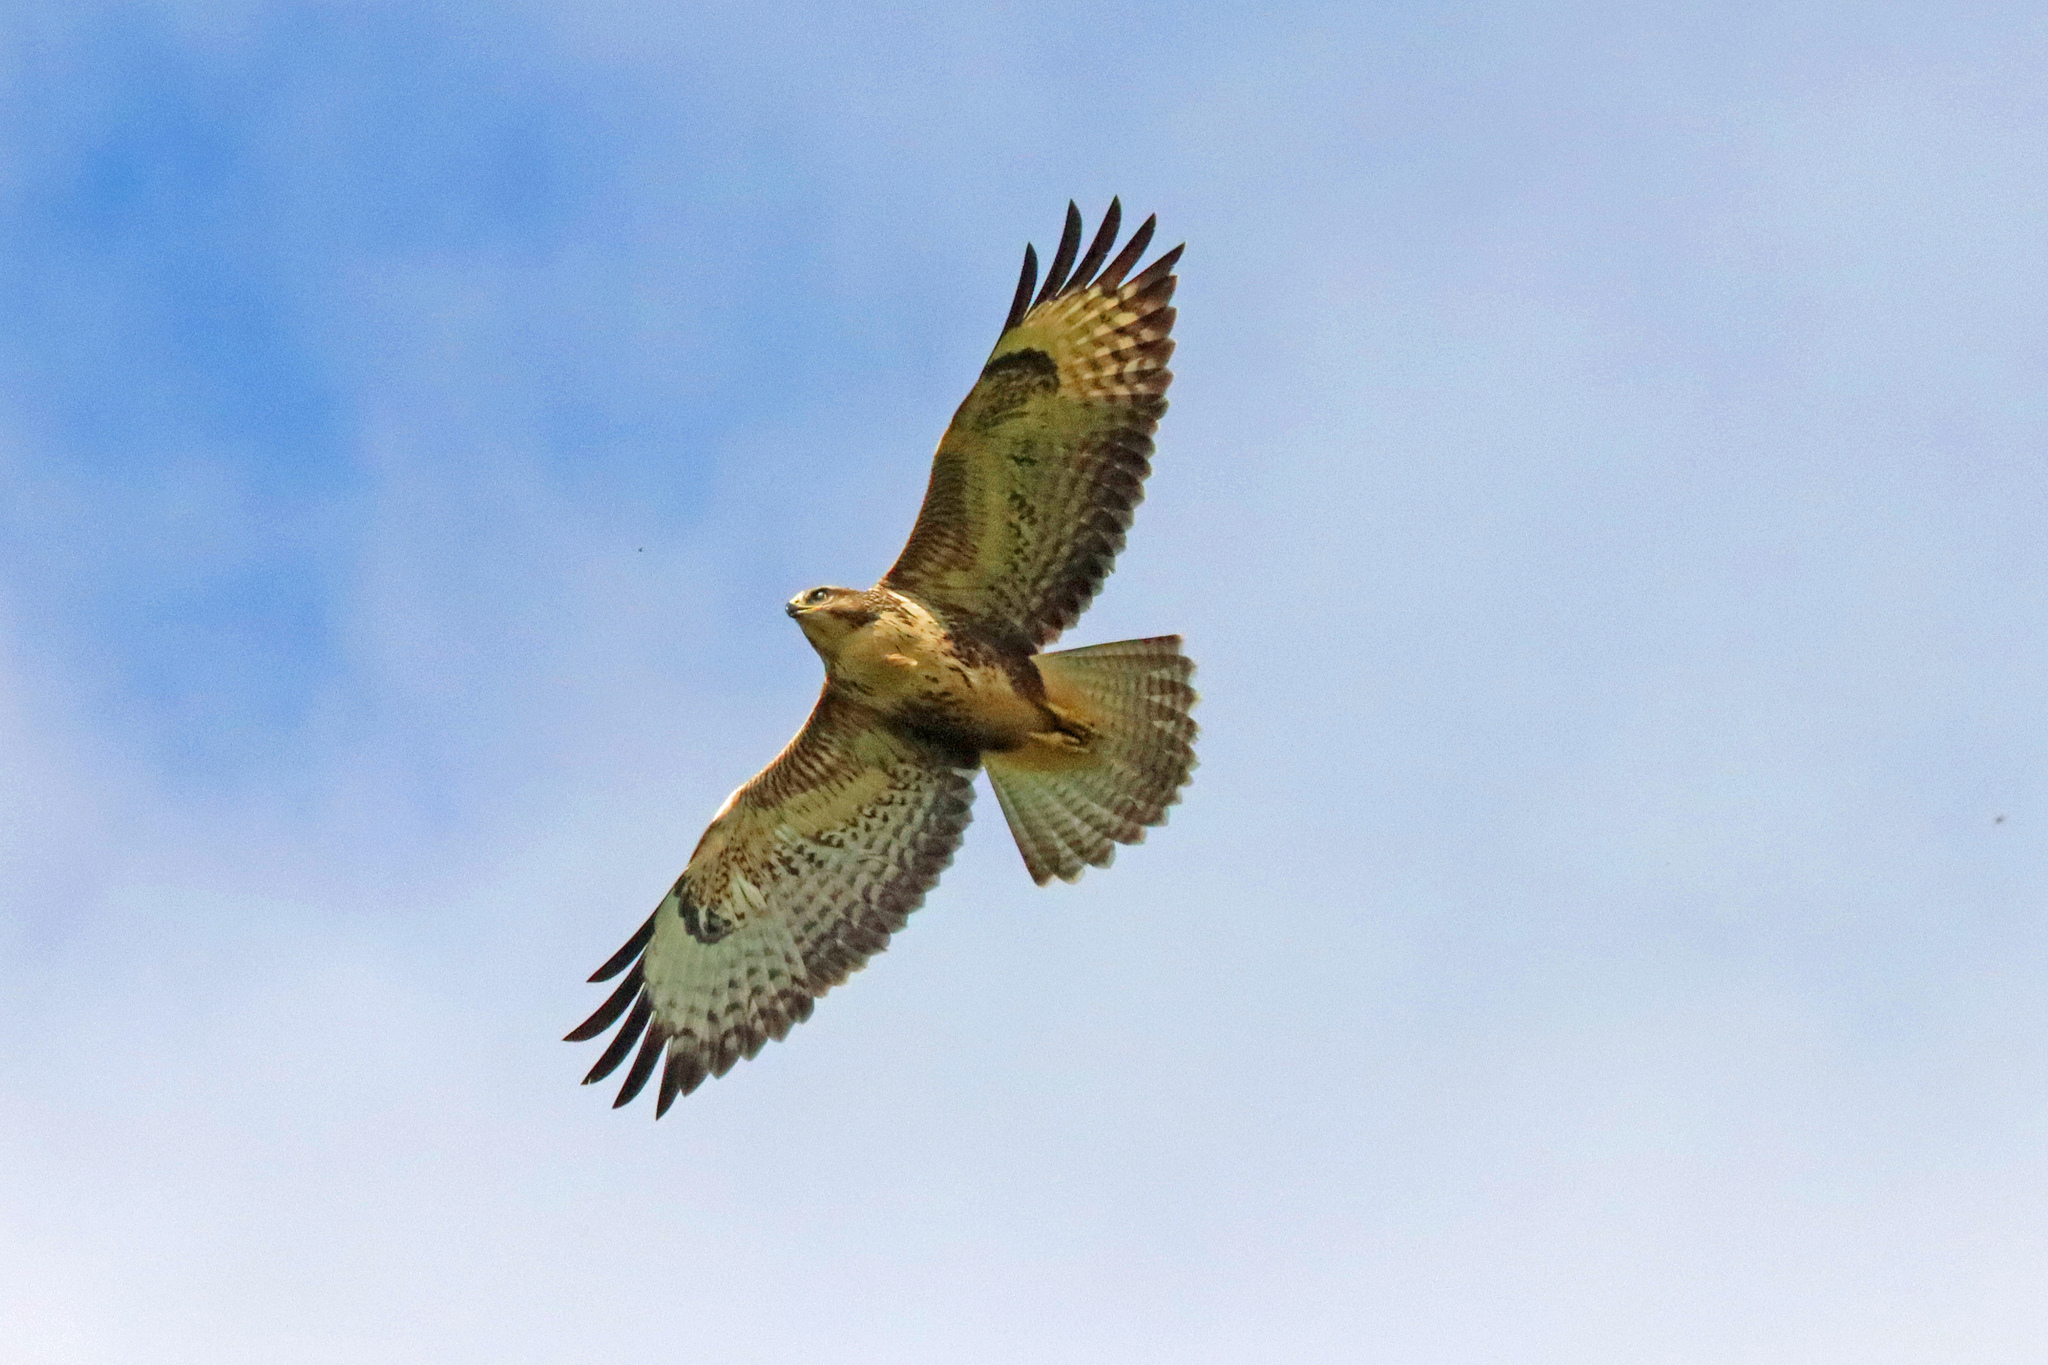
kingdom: Animalia
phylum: Chordata
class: Aves
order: Accipitriformes
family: Accipitridae
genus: Buteo
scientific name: Buteo buteo
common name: Common buzzard
